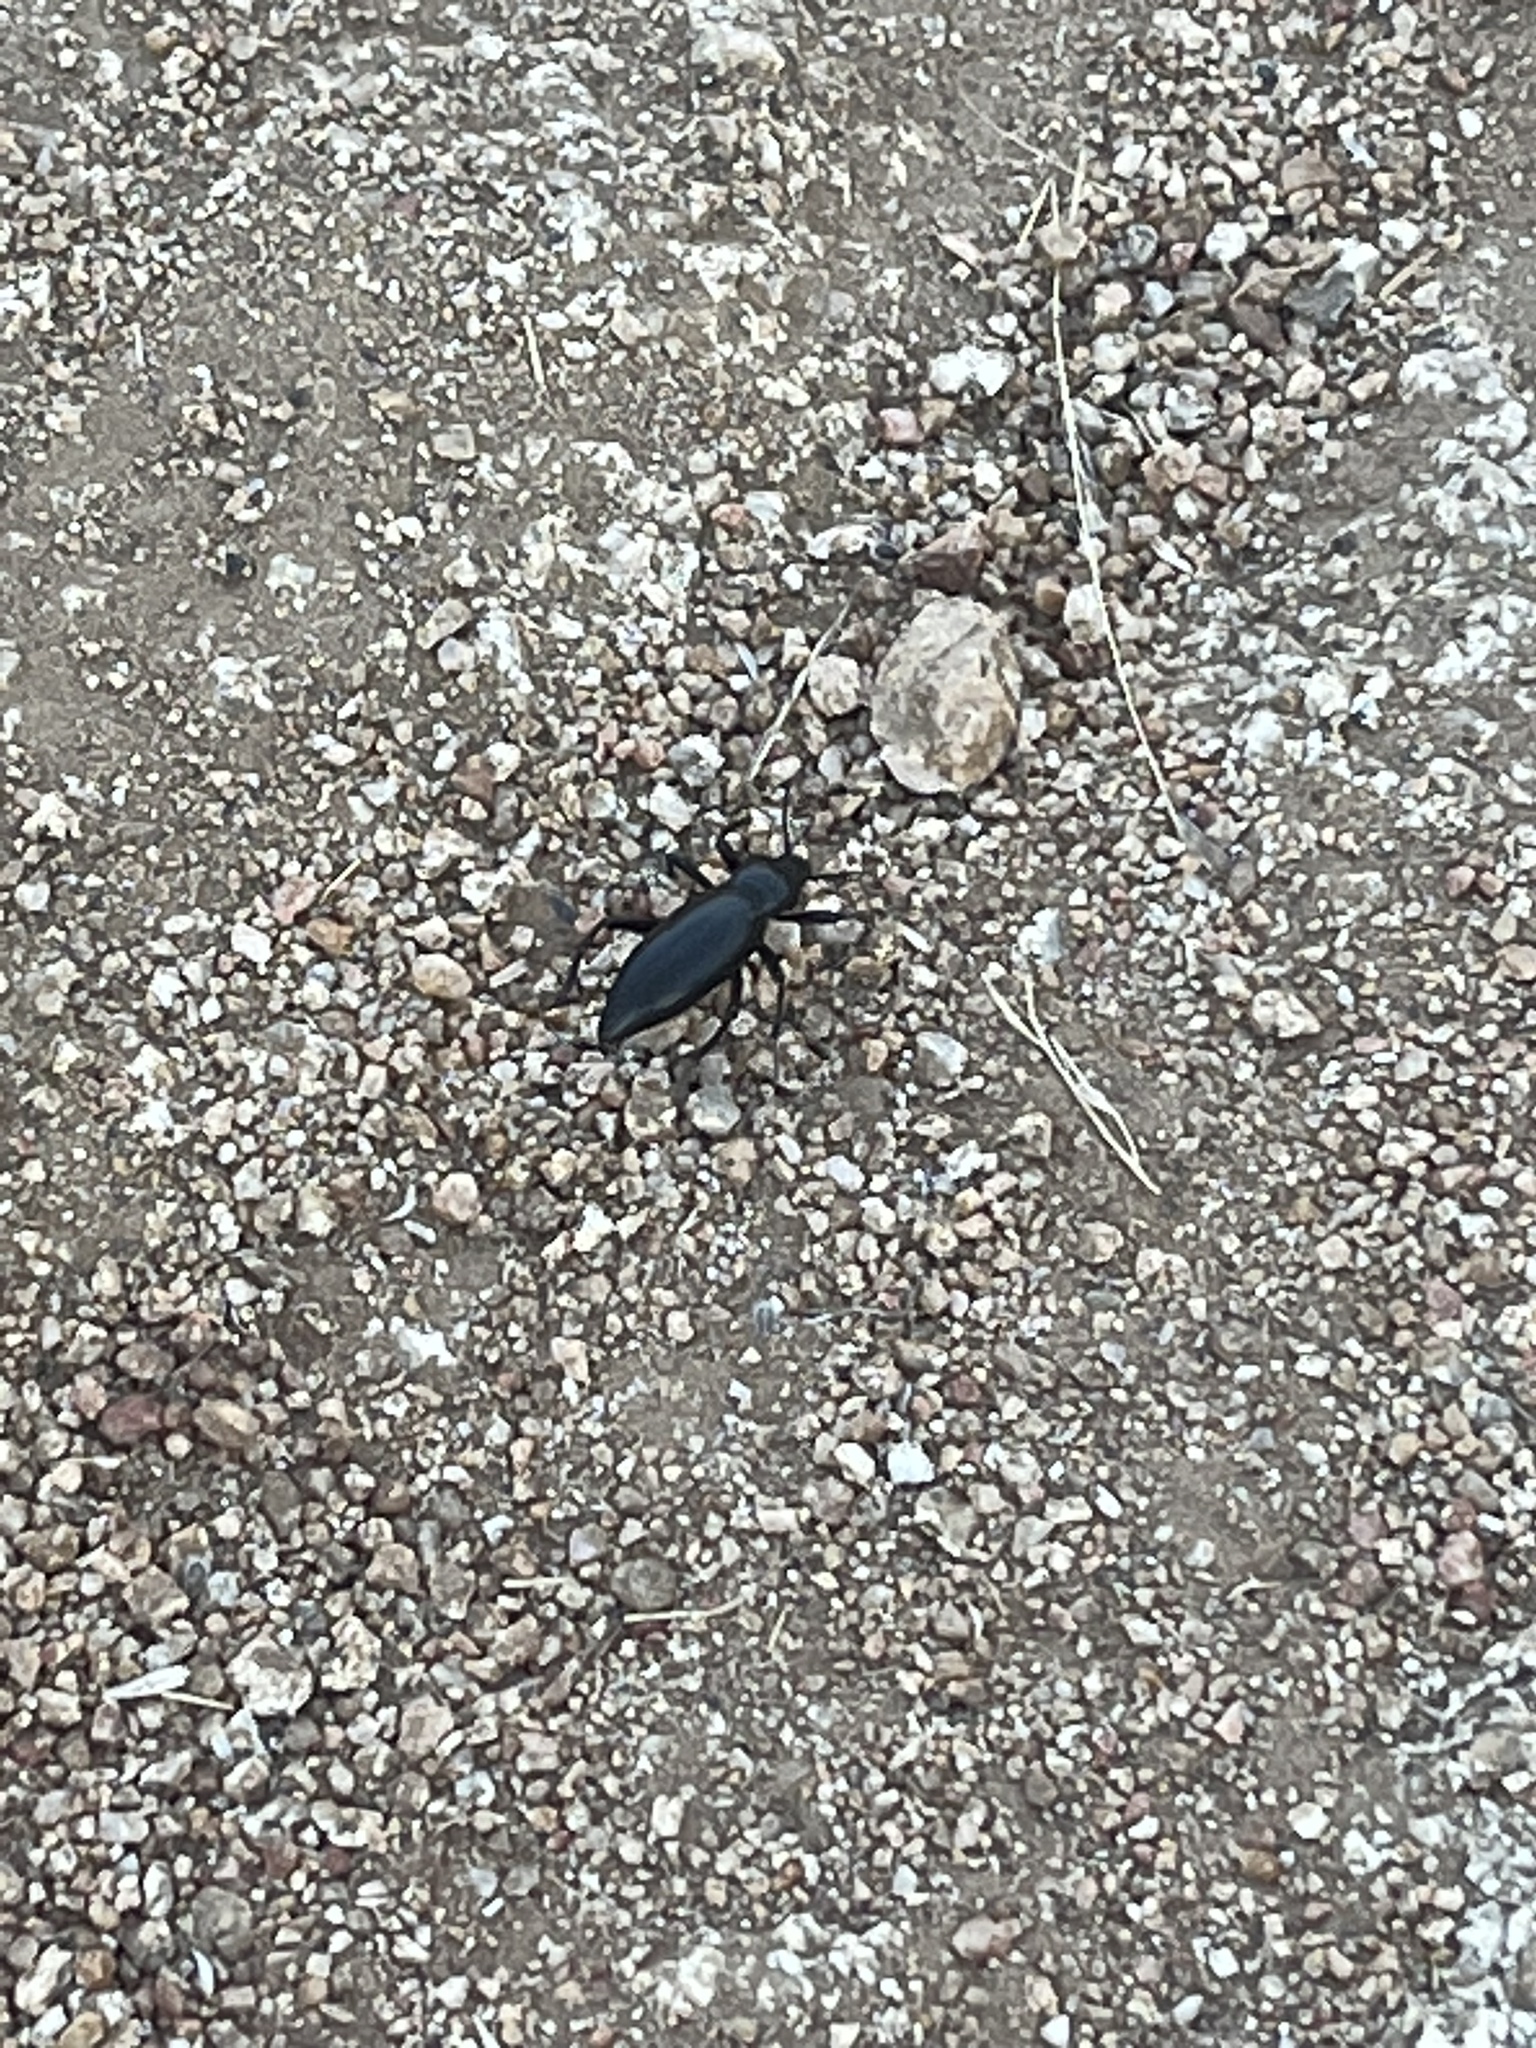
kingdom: Animalia
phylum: Arthropoda
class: Insecta
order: Coleoptera
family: Tenebrionidae
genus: Eleodes
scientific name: Eleodes gigantea
